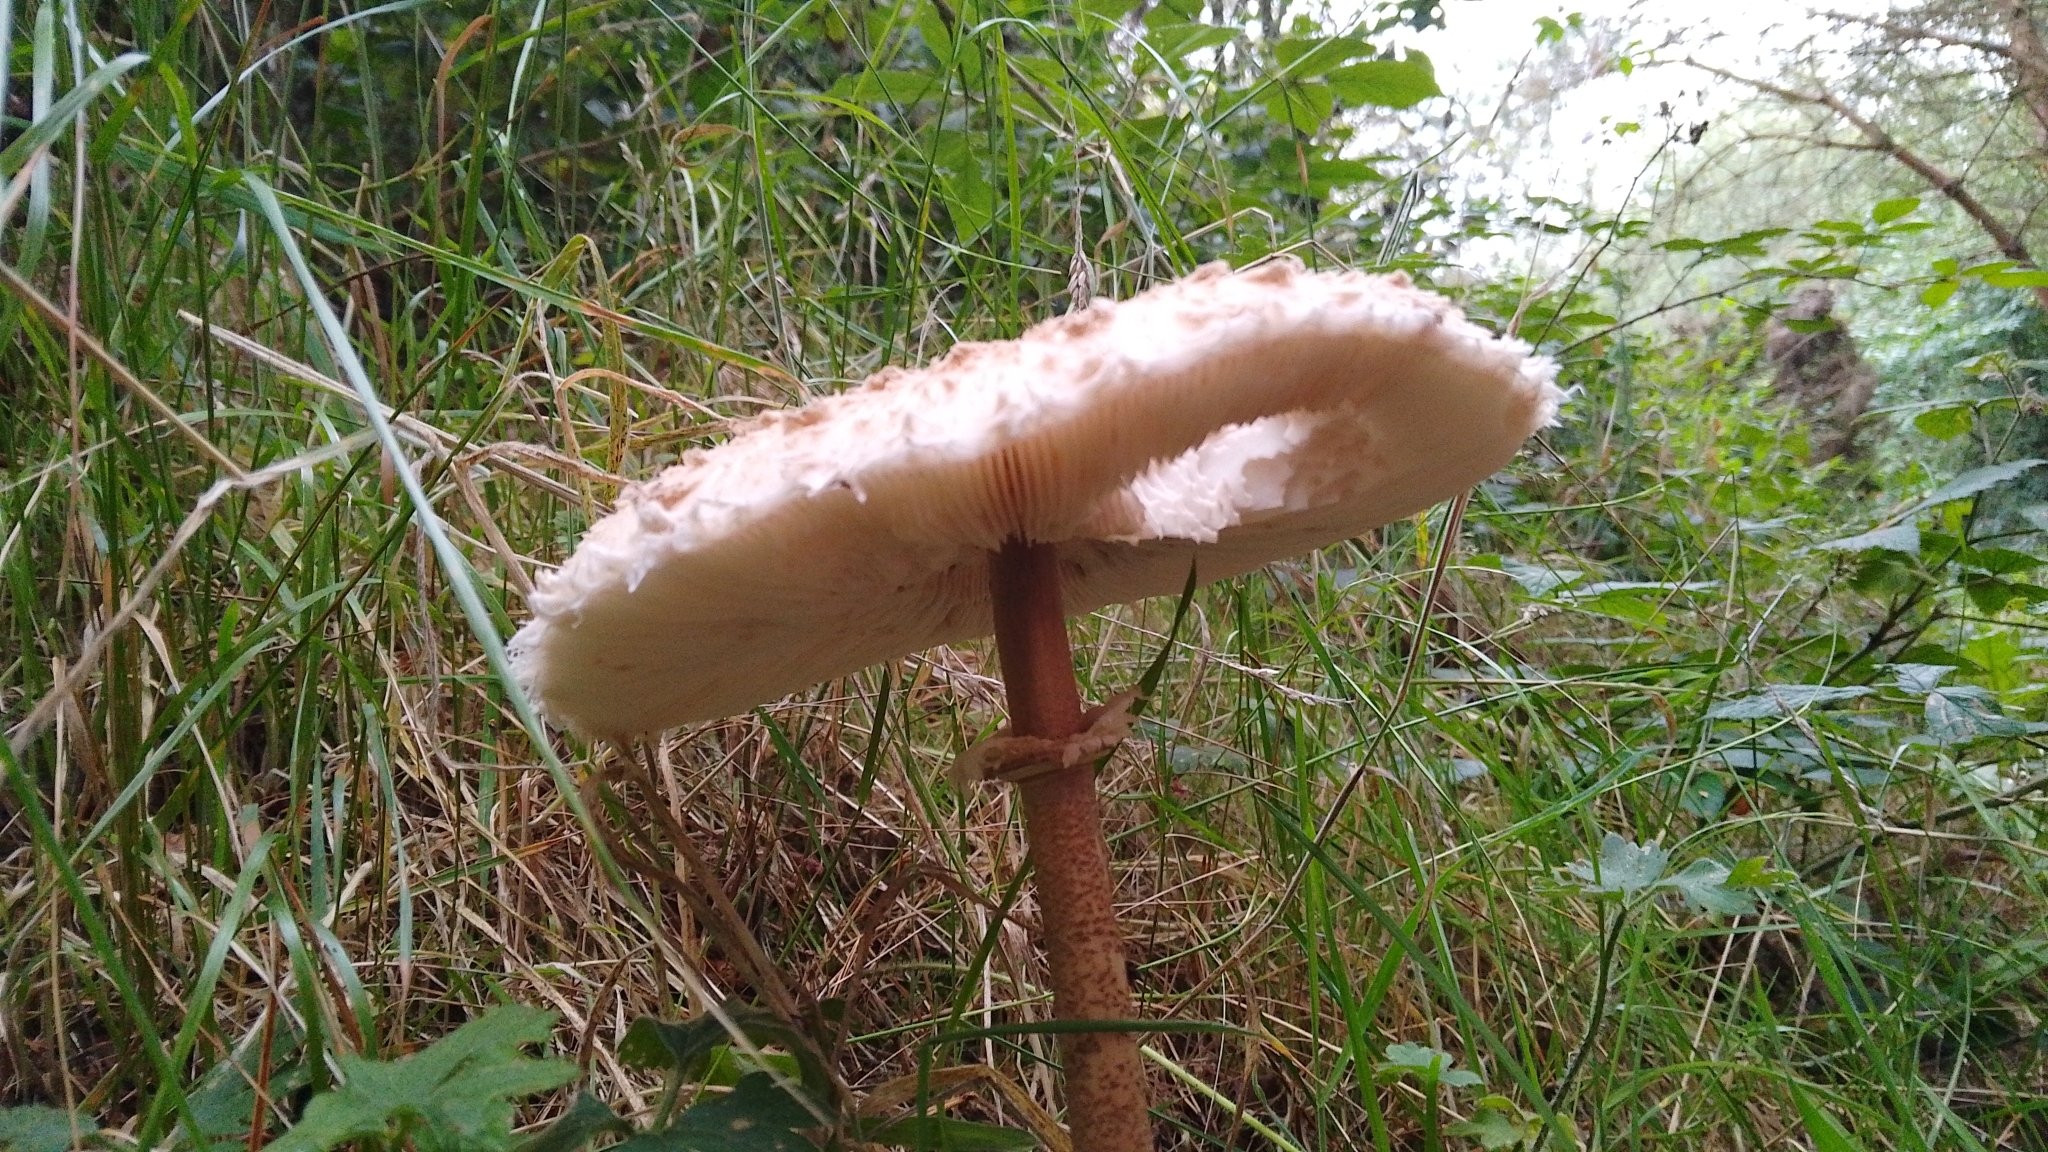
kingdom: Fungi
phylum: Basidiomycota
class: Agaricomycetes
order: Agaricales
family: Agaricaceae
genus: Macrolepiota
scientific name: Macrolepiota procera
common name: Parasol
